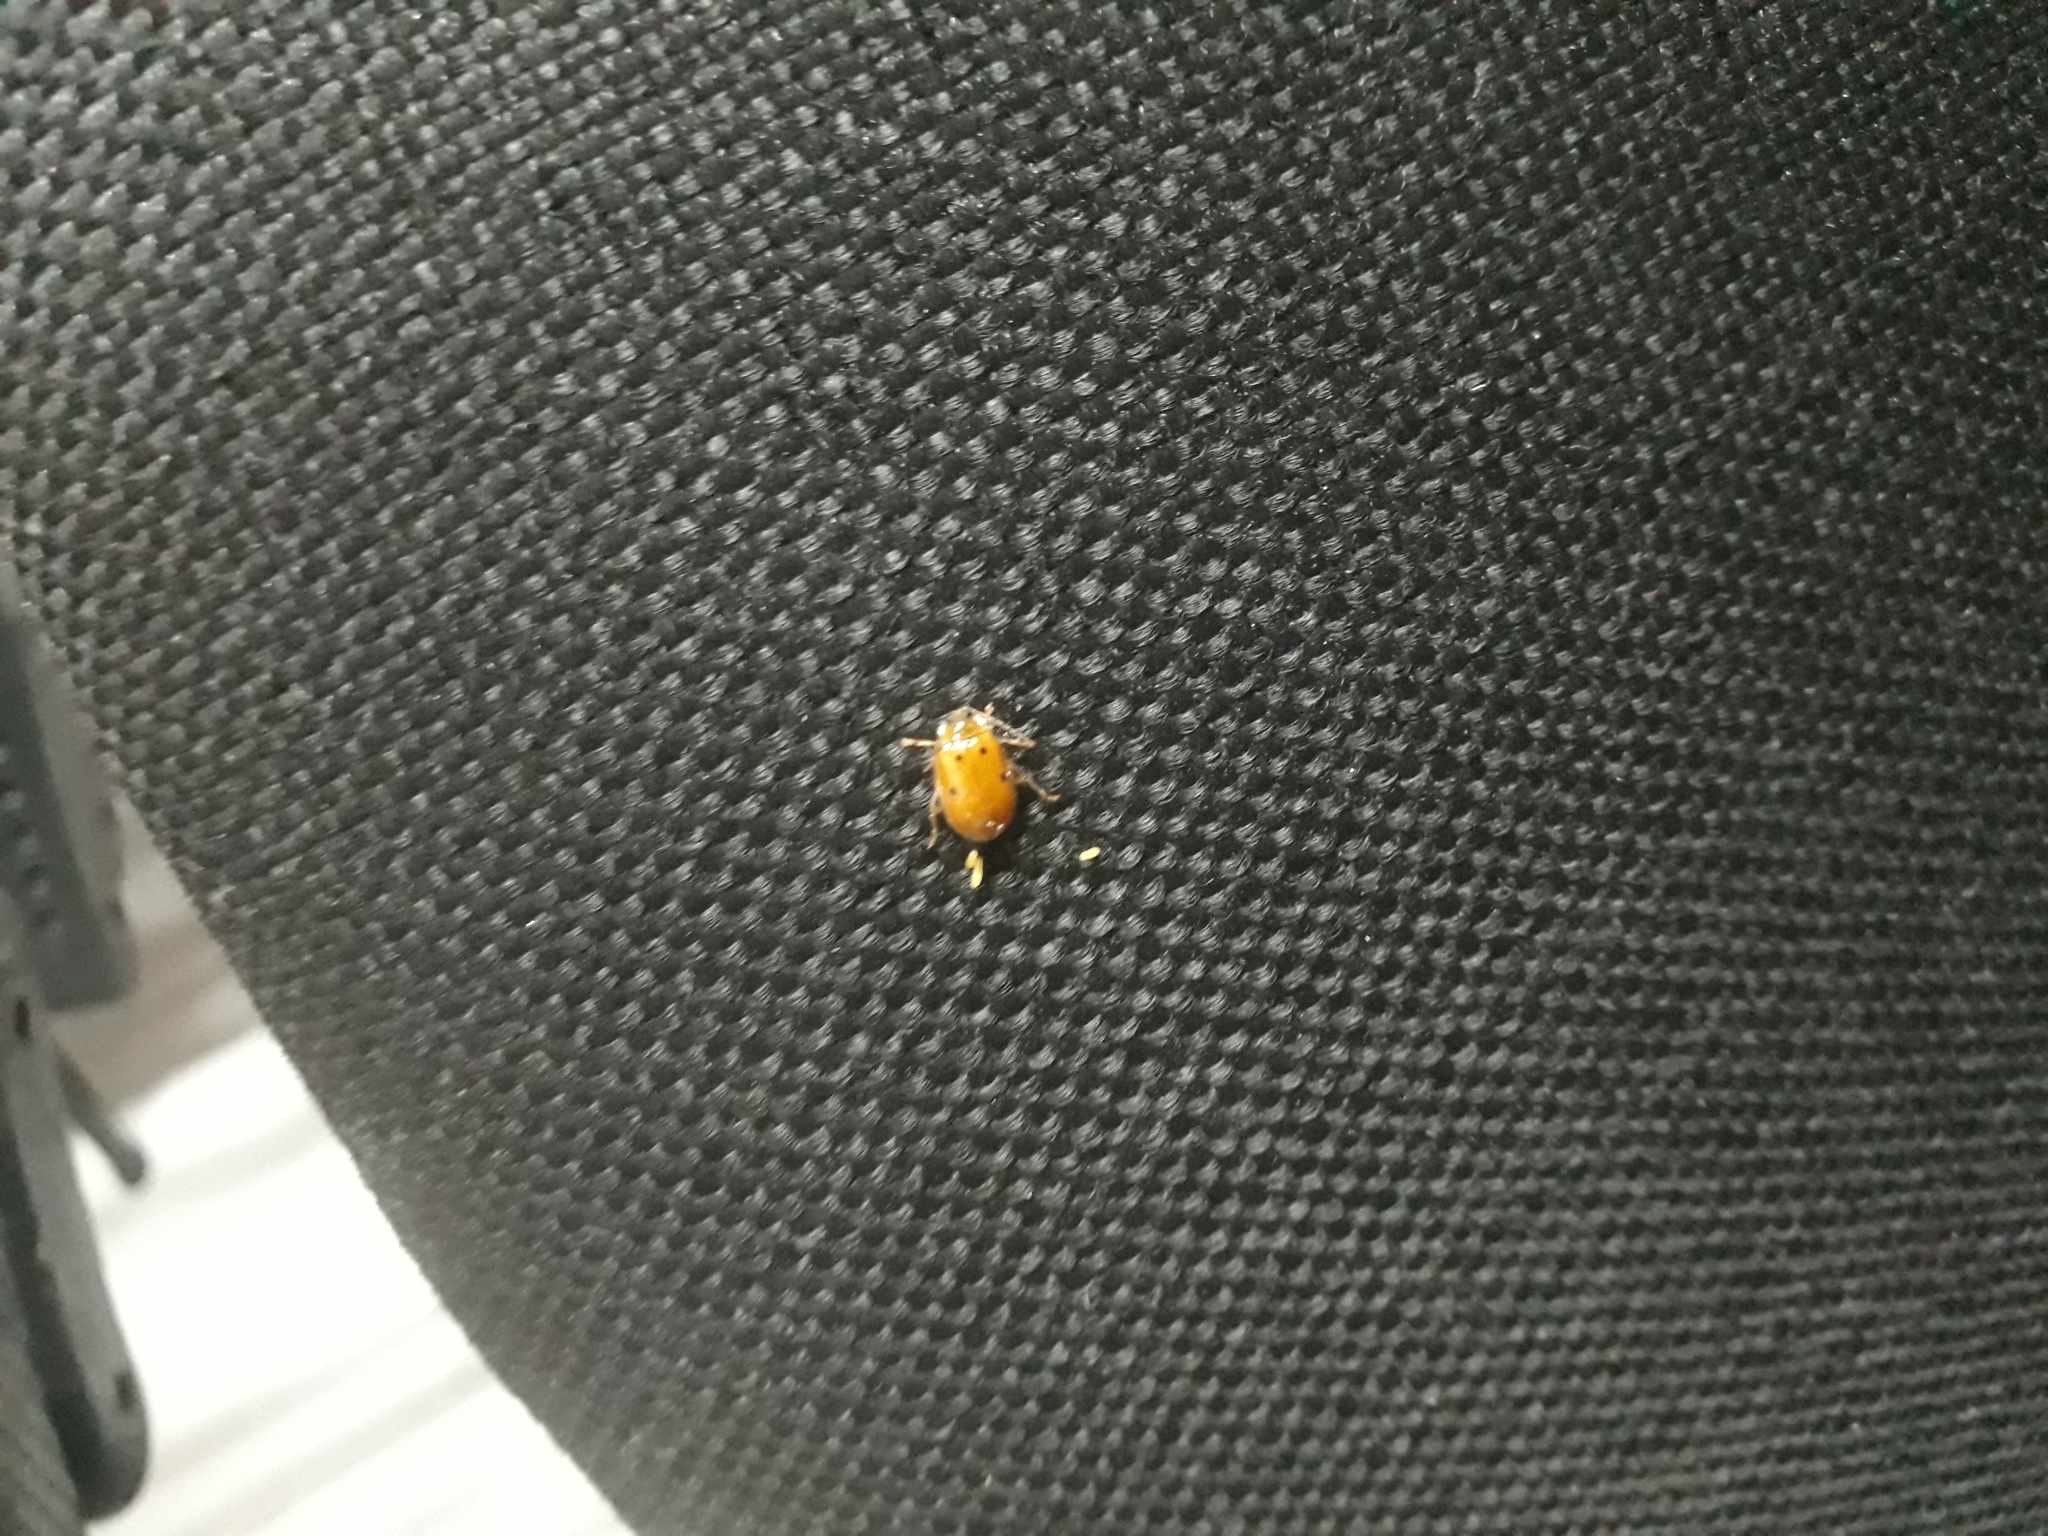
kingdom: Animalia
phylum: Arthropoda
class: Insecta
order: Coleoptera
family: Chrysomelidae
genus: Walterianella
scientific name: Walterianella
